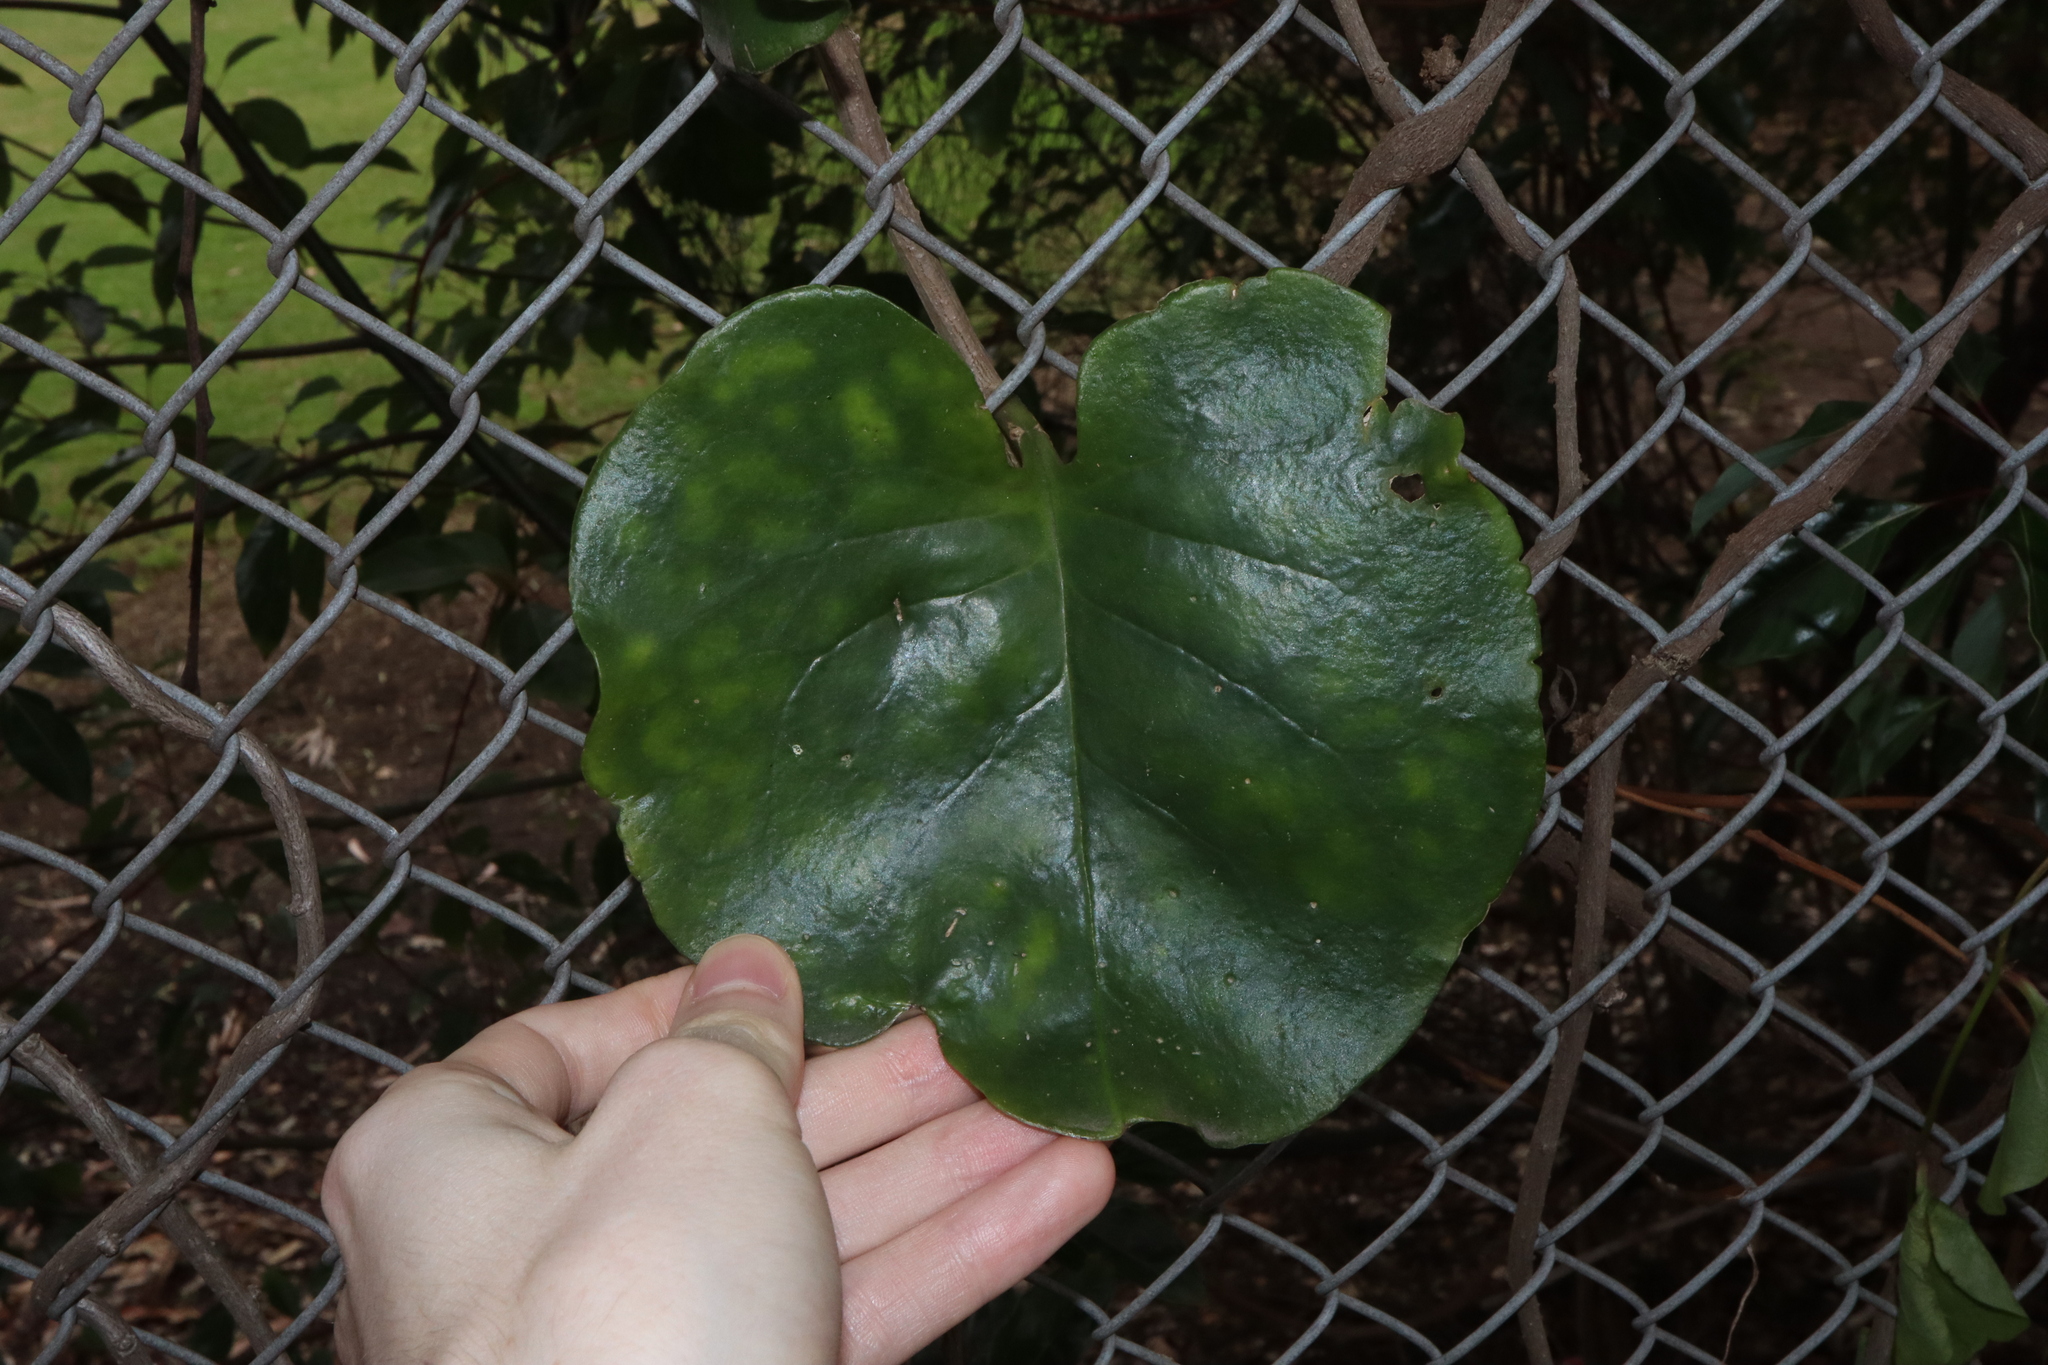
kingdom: Plantae
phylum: Tracheophyta
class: Magnoliopsida
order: Caryophyllales
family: Basellaceae
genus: Anredera
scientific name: Anredera cordifolia
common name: Heartleaf madeiravine
